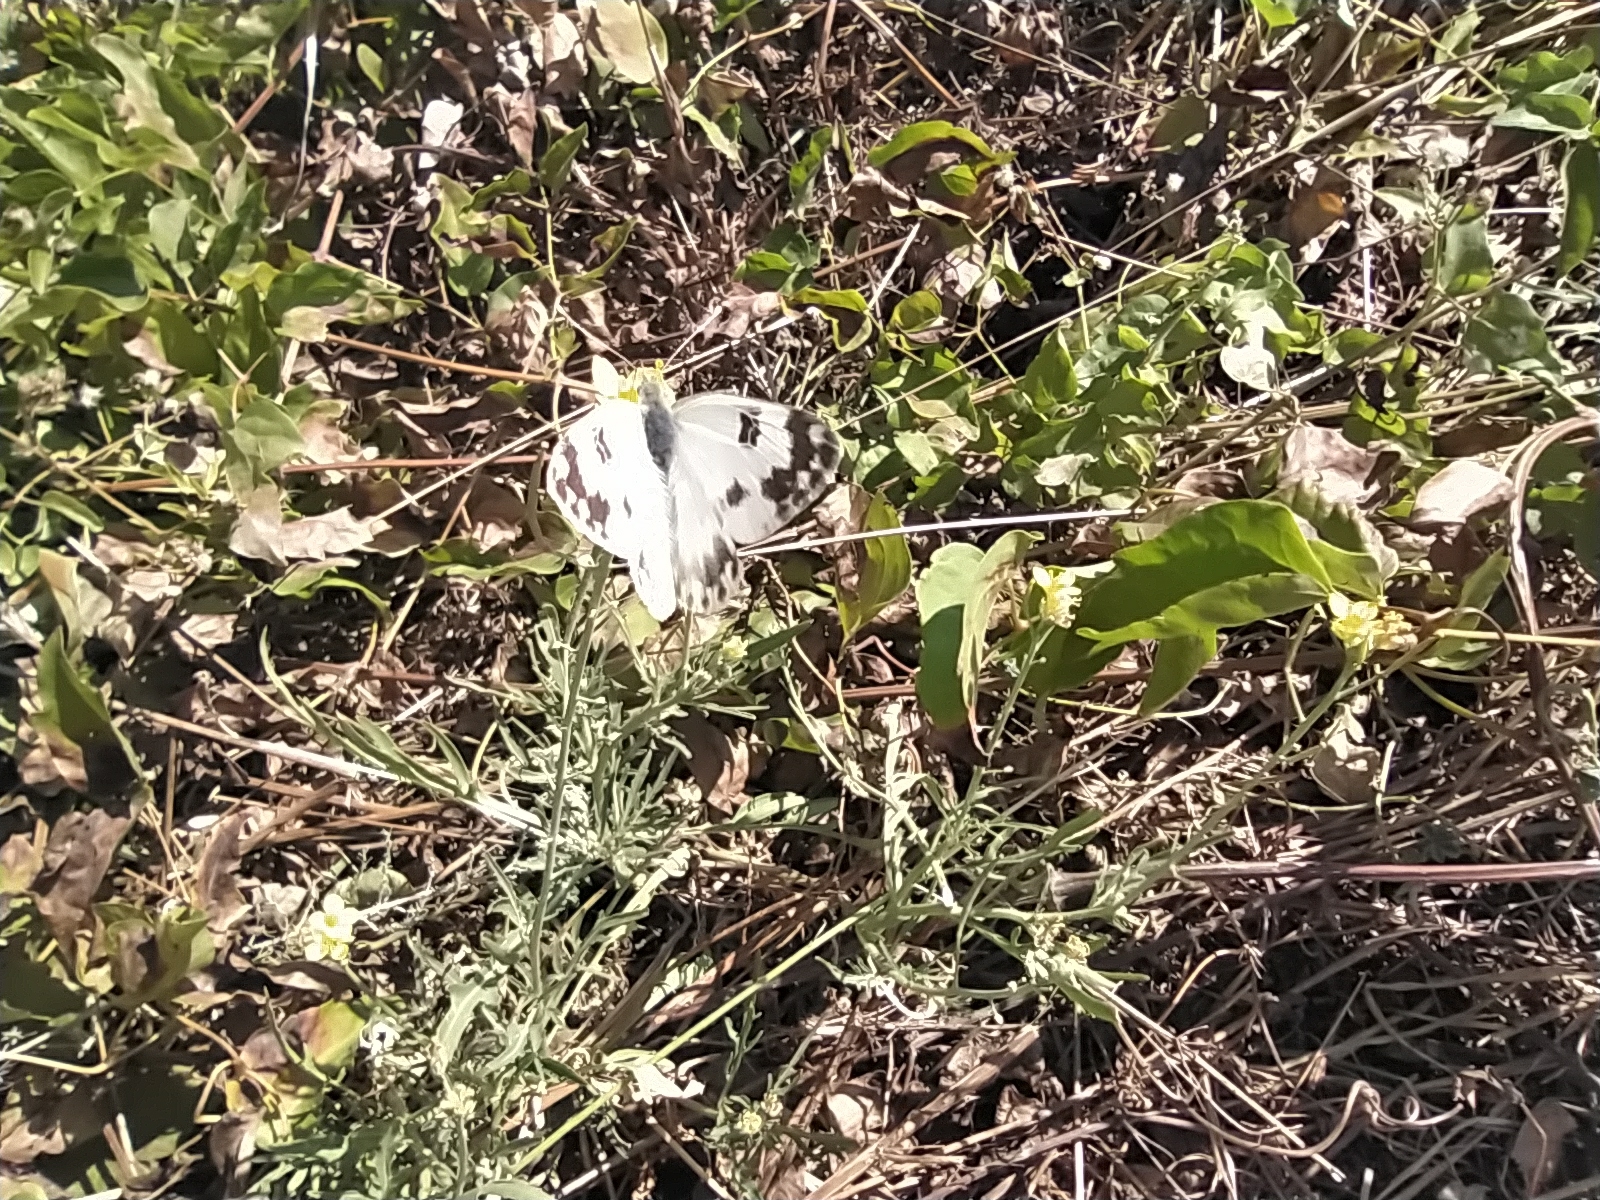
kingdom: Animalia
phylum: Arthropoda
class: Insecta
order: Lepidoptera
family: Pieridae
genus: Pontia
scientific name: Pontia edusa
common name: Eastern bath white
